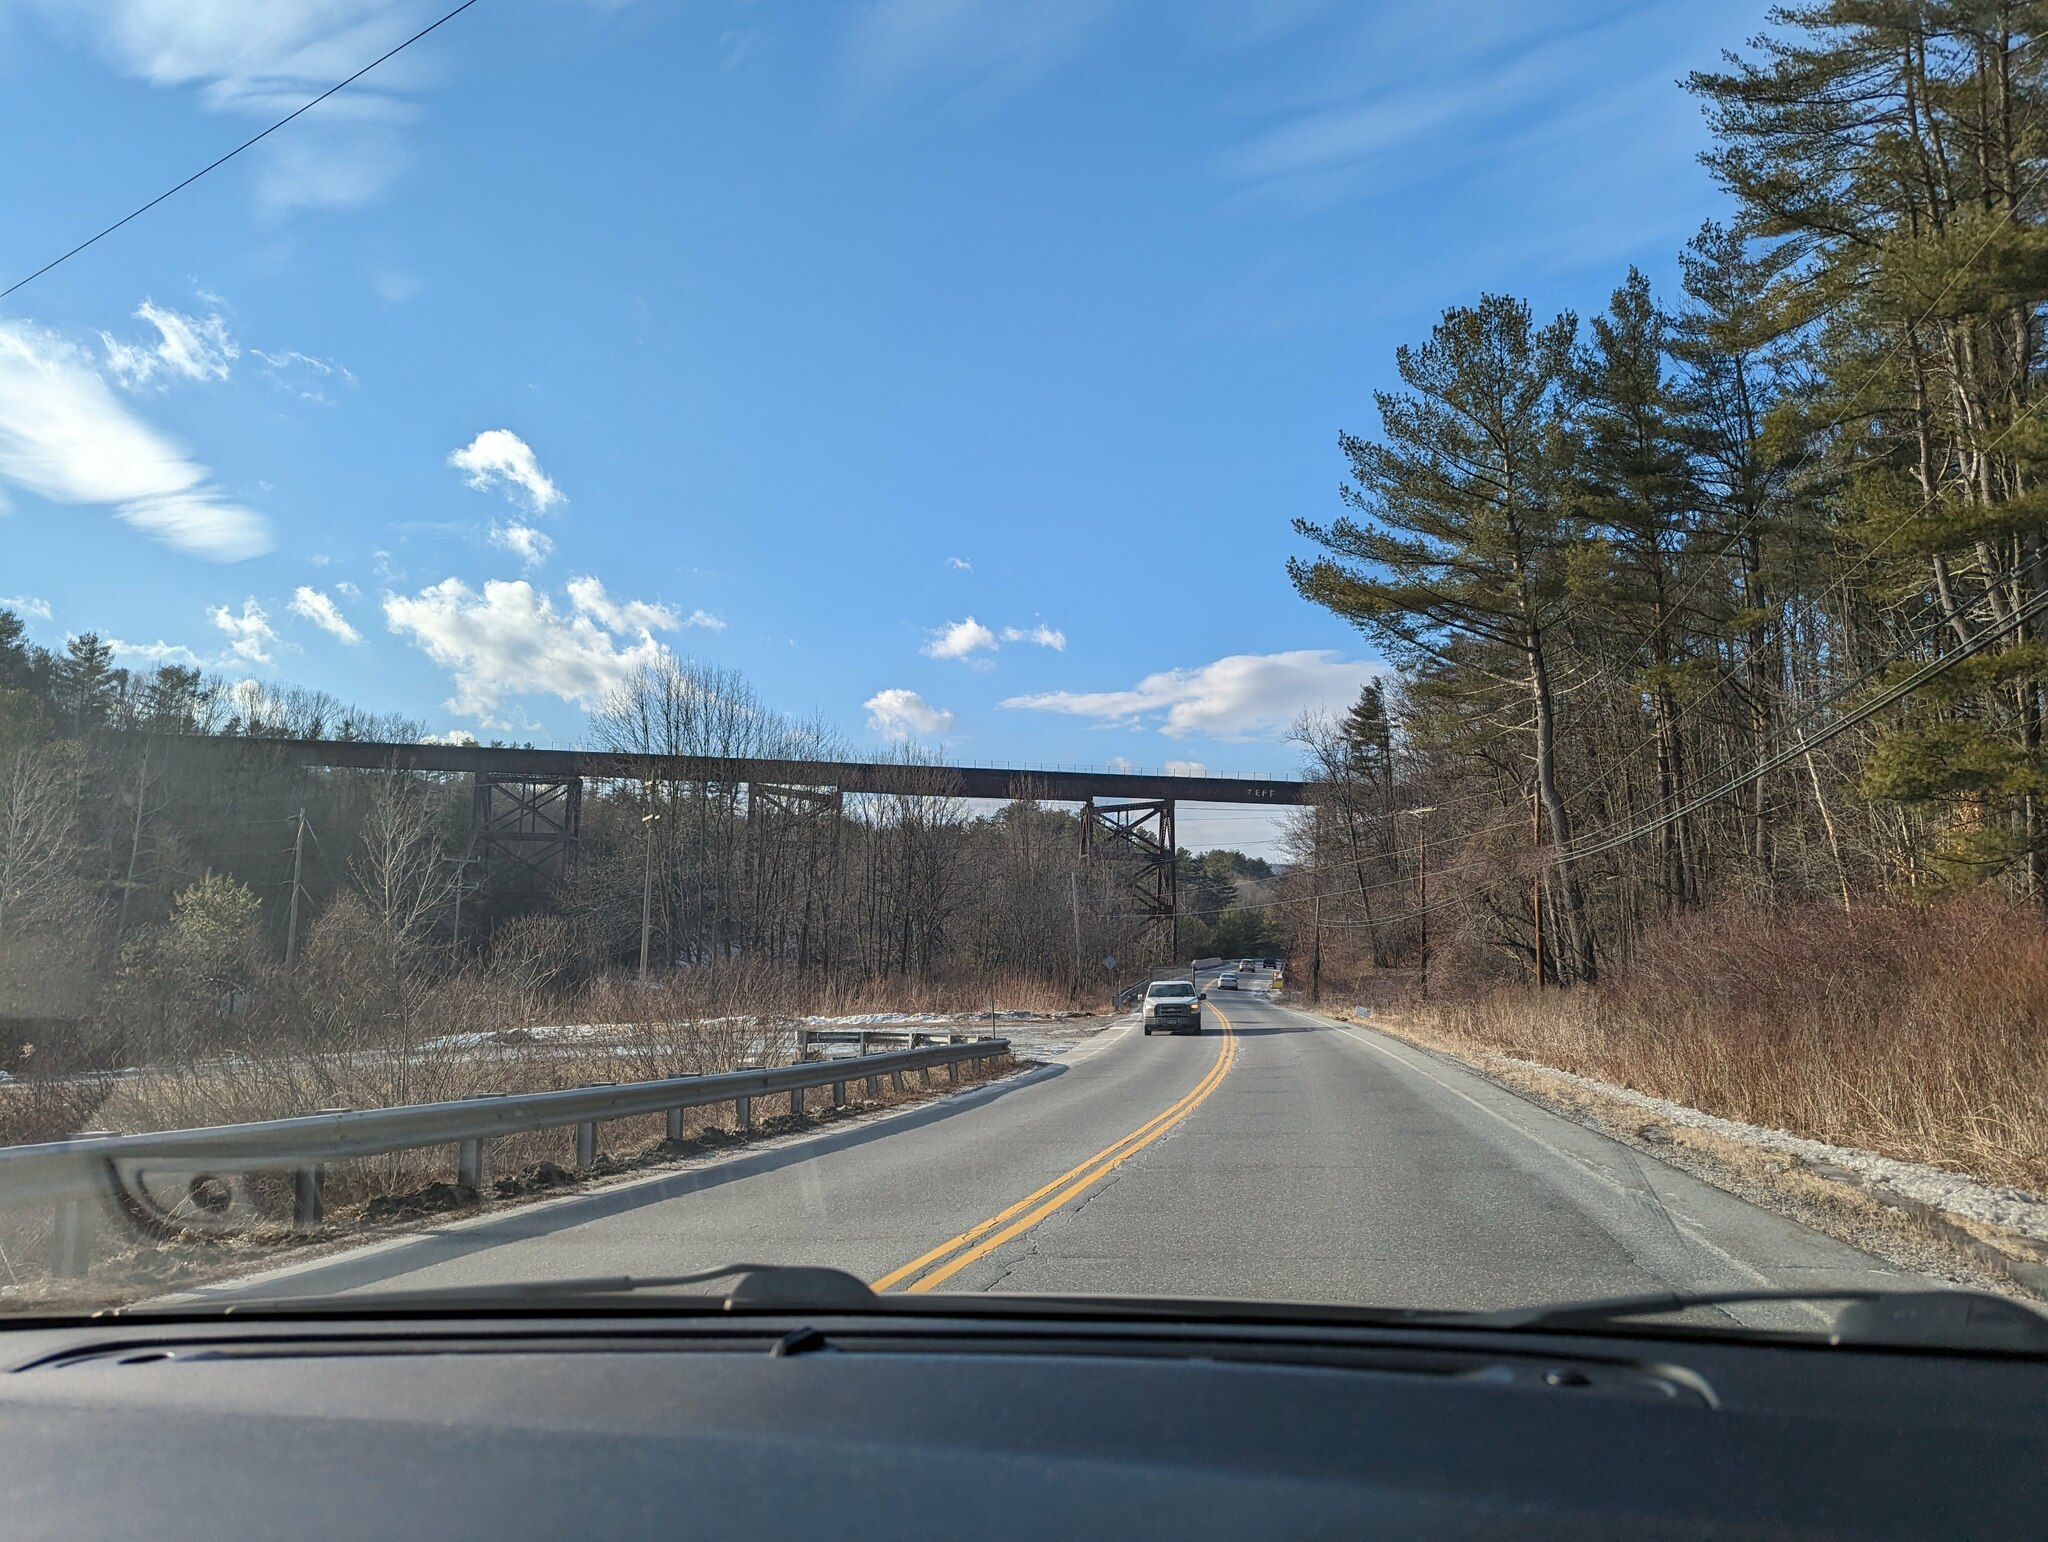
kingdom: Plantae
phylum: Tracheophyta
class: Pinopsida
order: Pinales
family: Pinaceae
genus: Pinus
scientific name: Pinus strobus
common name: Weymouth pine
